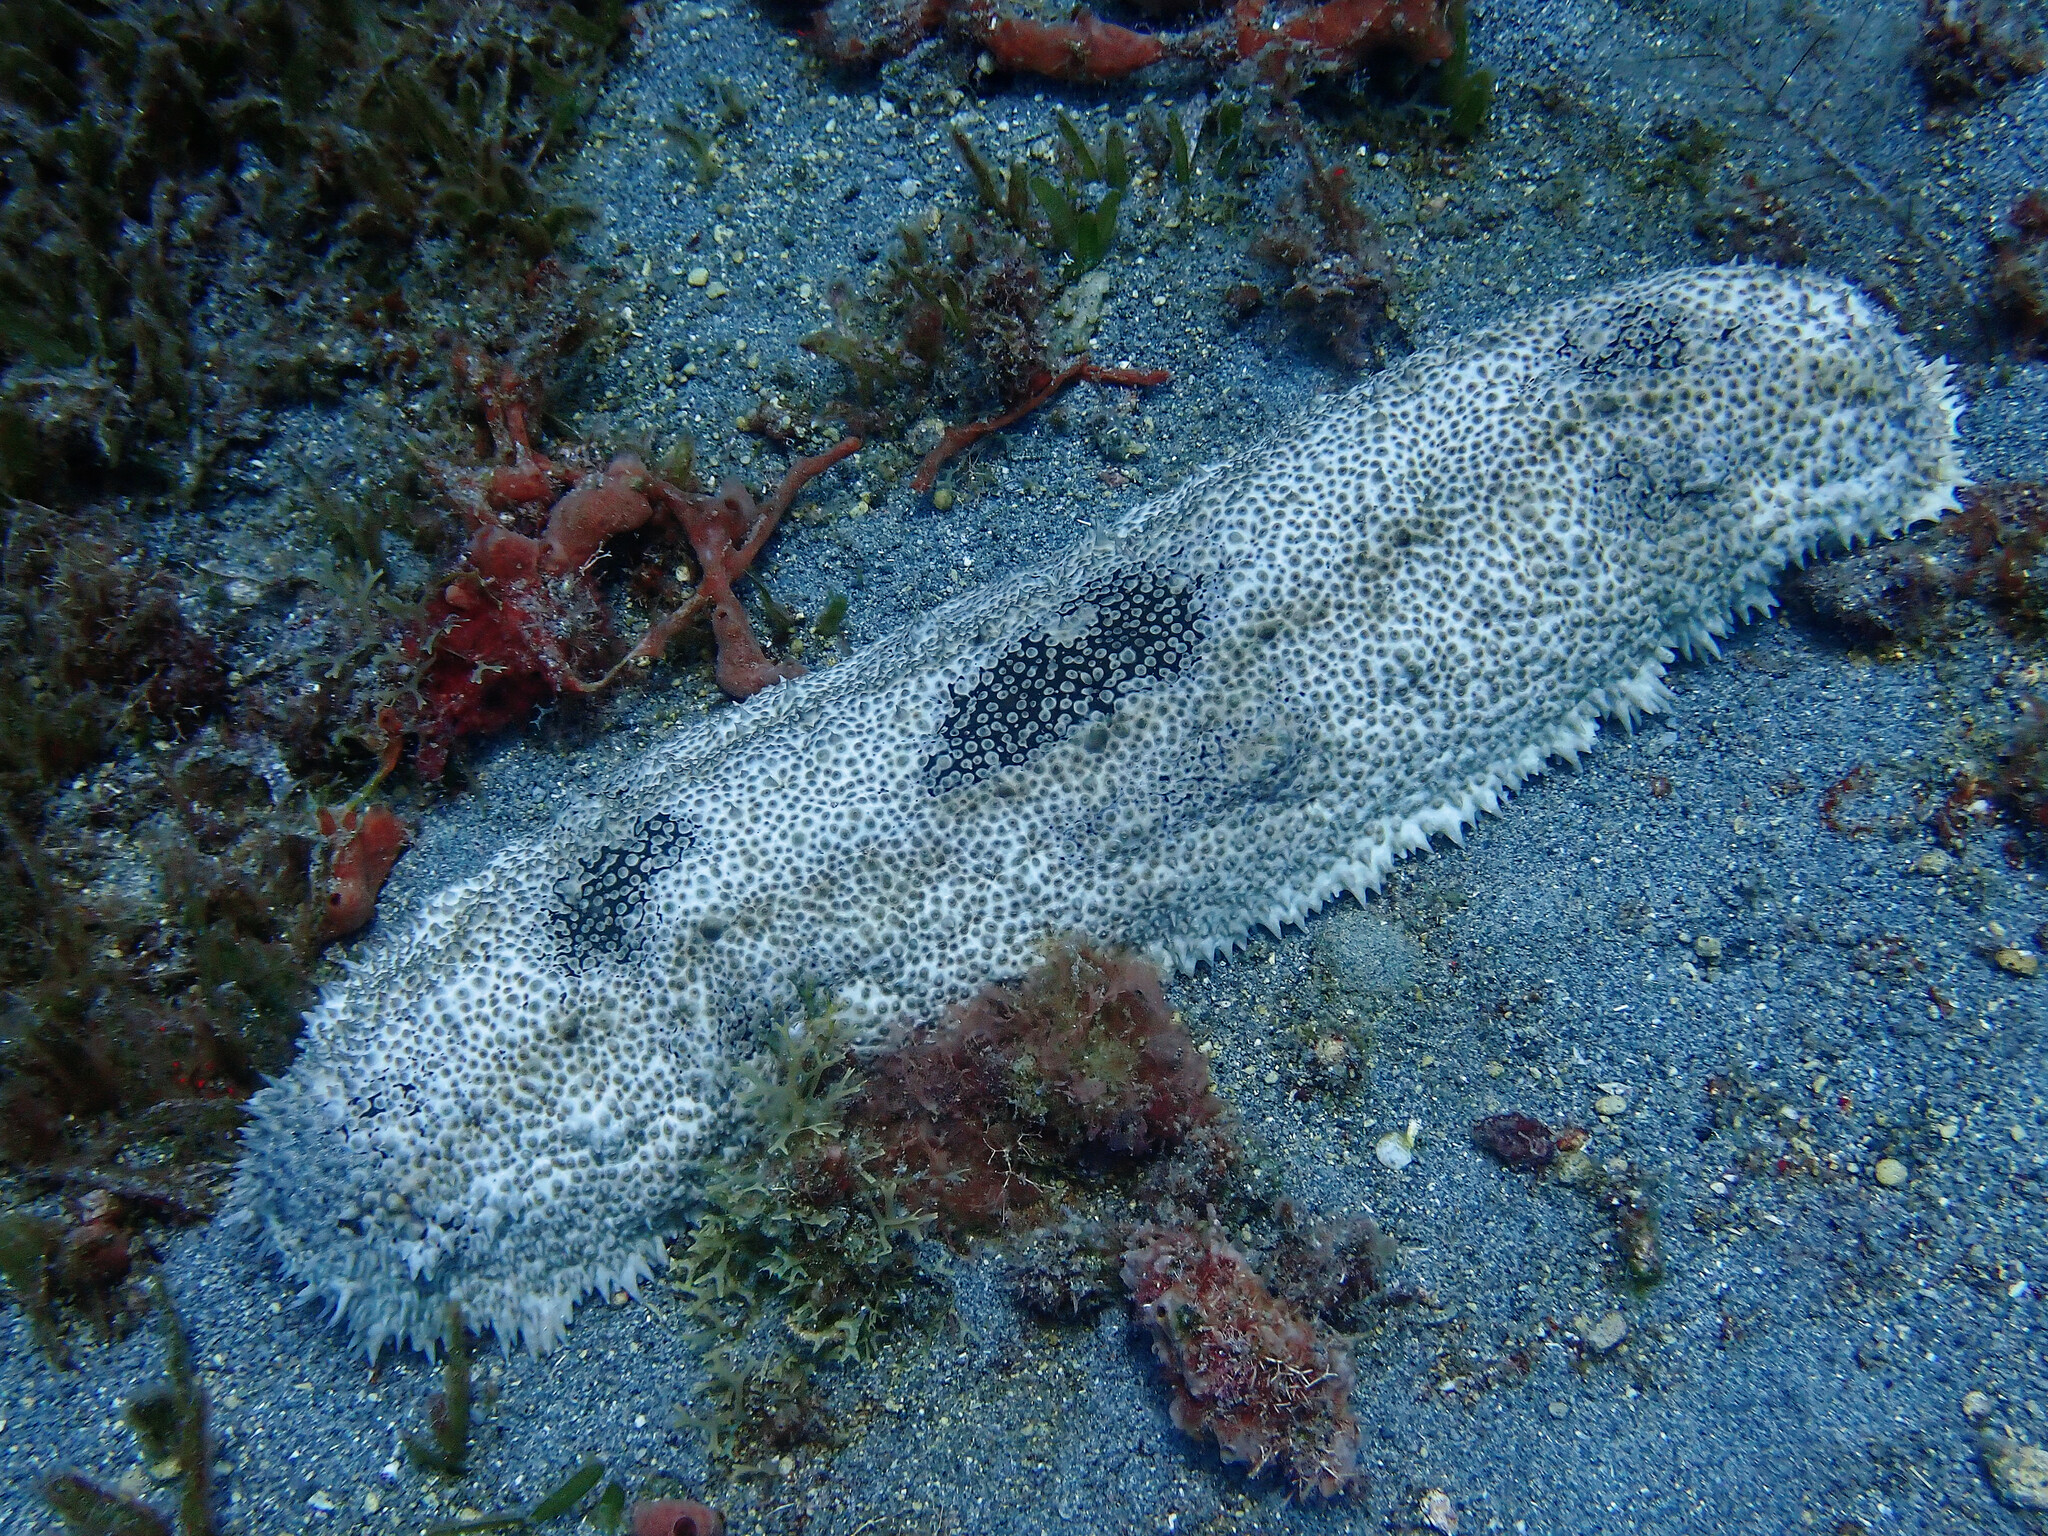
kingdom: Animalia
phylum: Echinodermata
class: Holothuroidea
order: Synallactida
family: Stichopodidae
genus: Astichopus
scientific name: Astichopus multifidus
